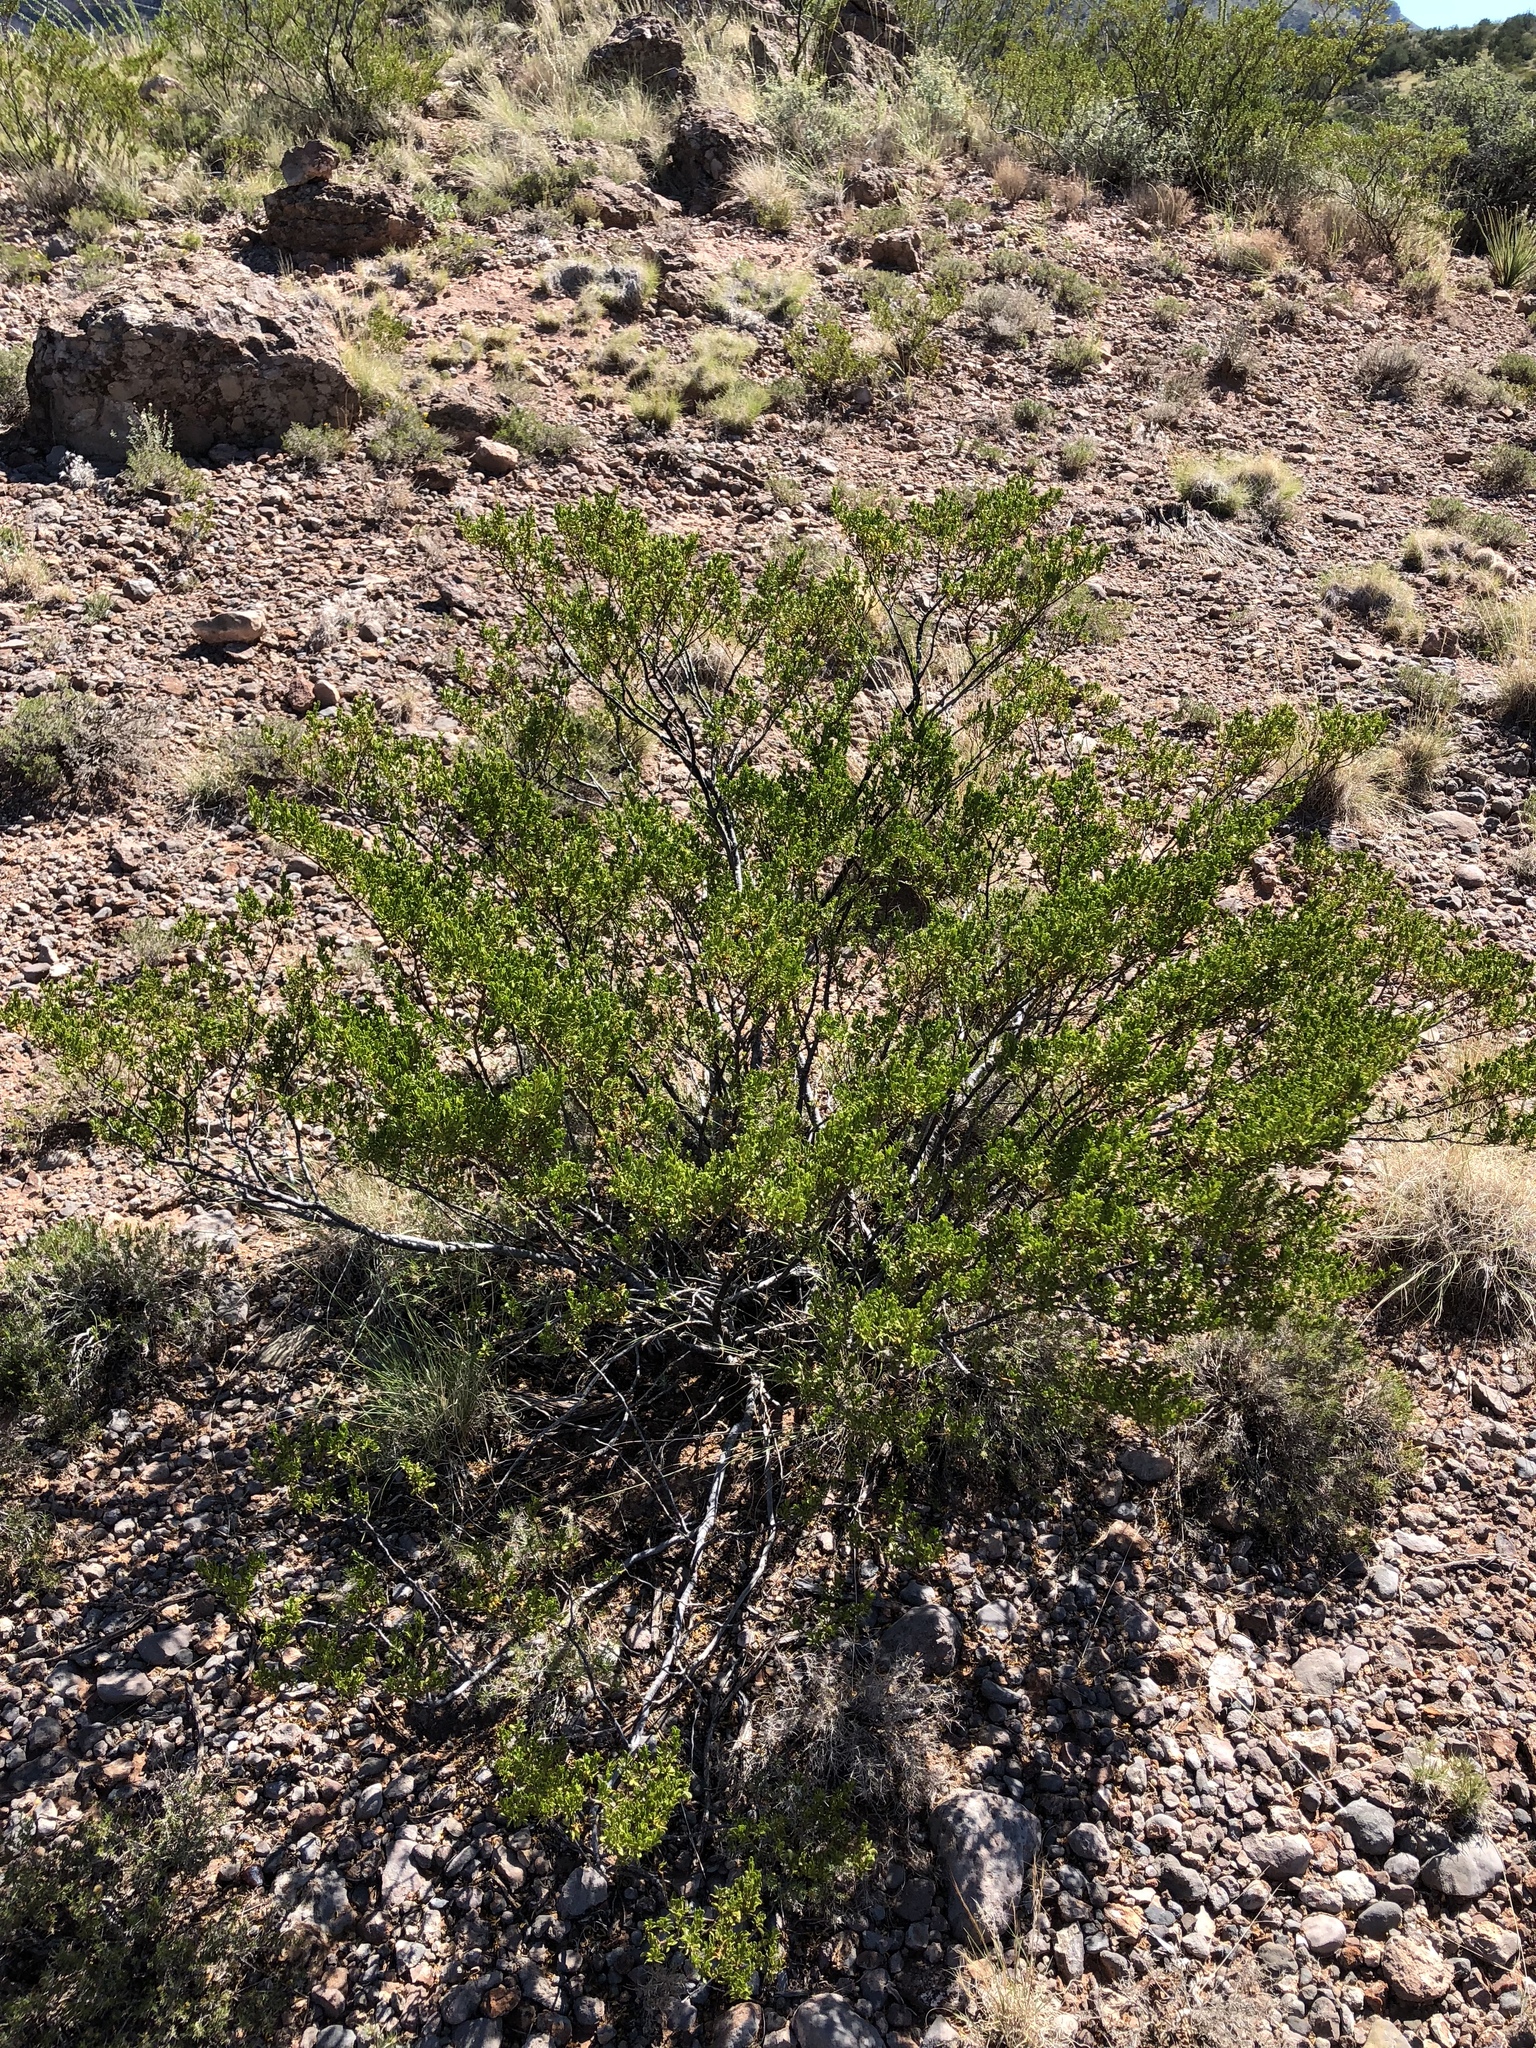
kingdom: Plantae
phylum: Tracheophyta
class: Magnoliopsida
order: Zygophyllales
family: Zygophyllaceae
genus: Larrea
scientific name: Larrea tridentata
